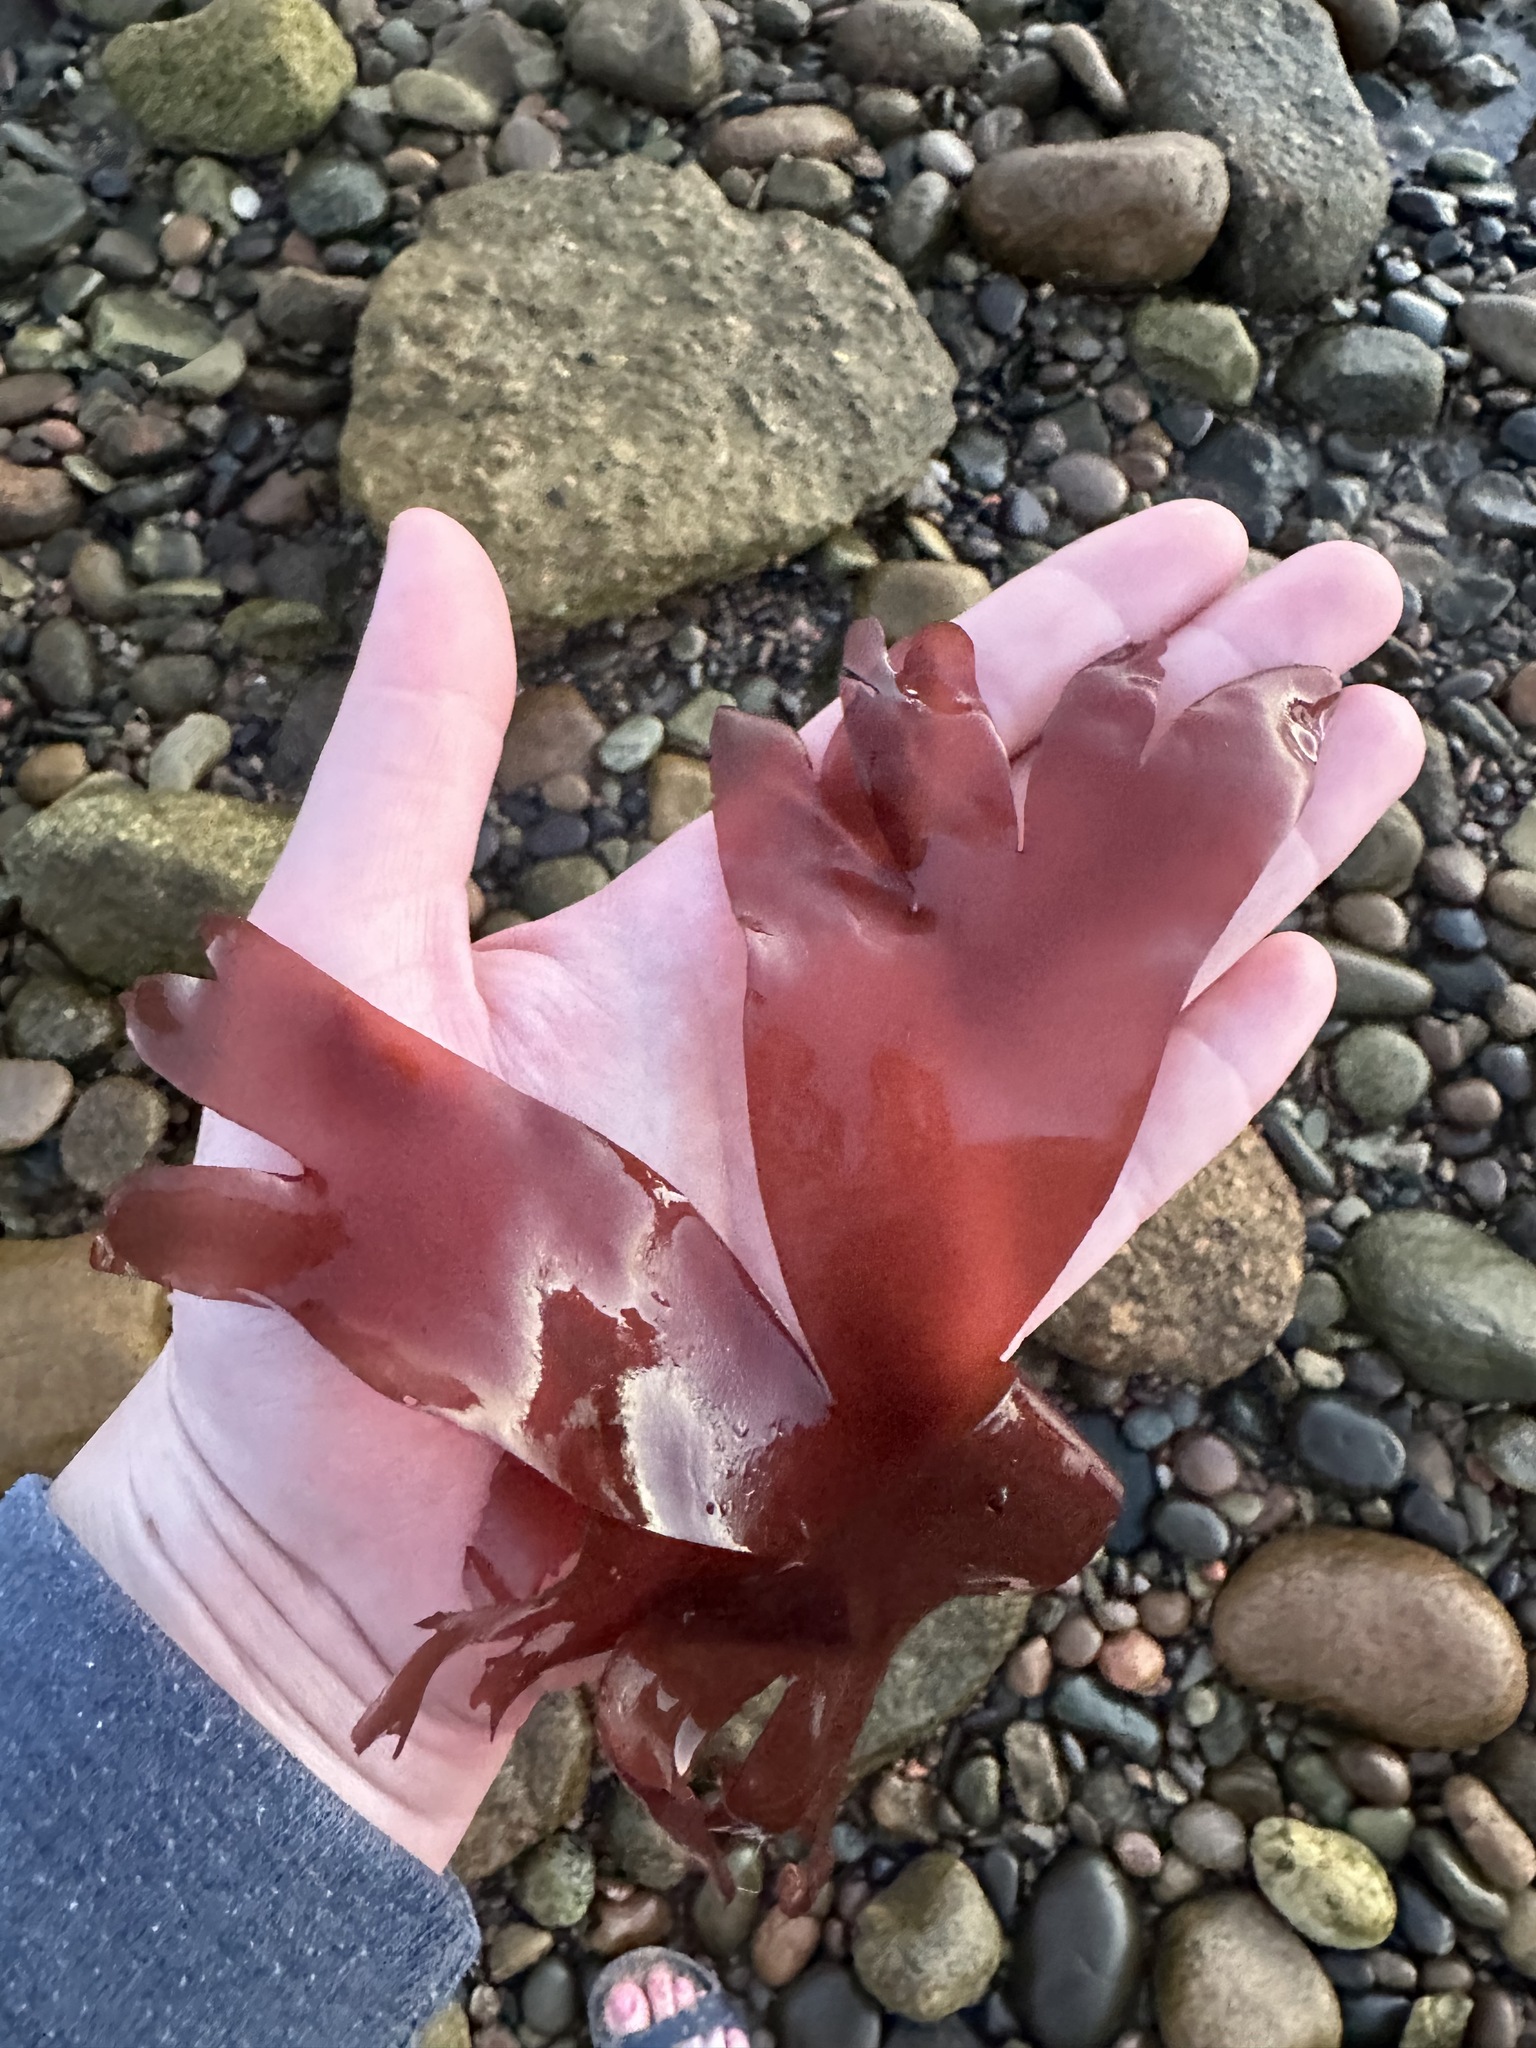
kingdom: Plantae
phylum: Rhodophyta
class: Florideophyceae
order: Palmariales
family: Palmariaceae
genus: Palmaria
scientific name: Palmaria palmata
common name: Dulse
